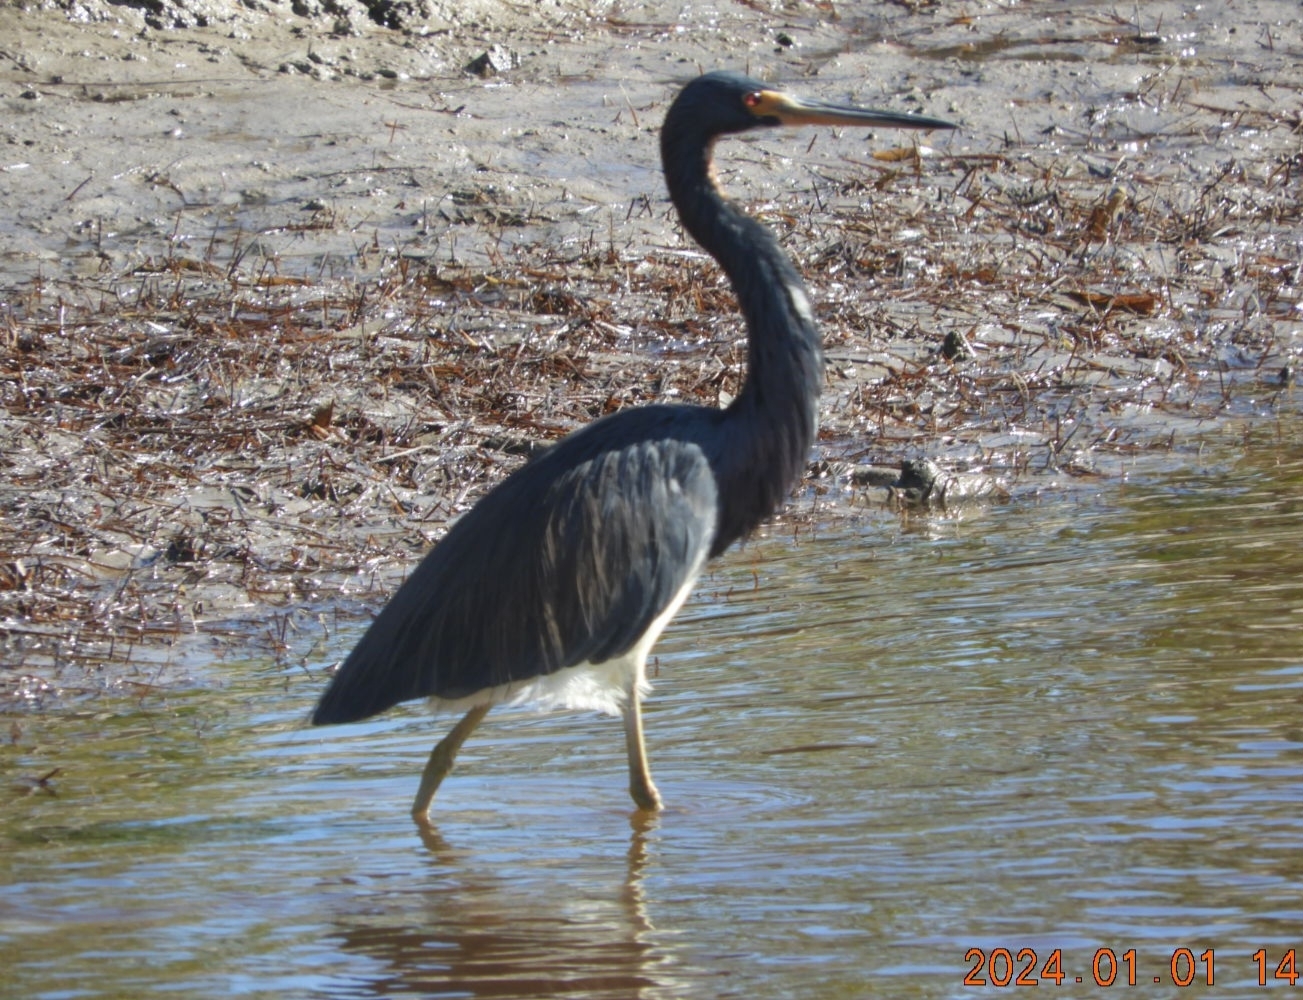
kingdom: Animalia
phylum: Chordata
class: Aves
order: Pelecaniformes
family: Ardeidae
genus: Egretta
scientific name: Egretta tricolor
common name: Tricolored heron
